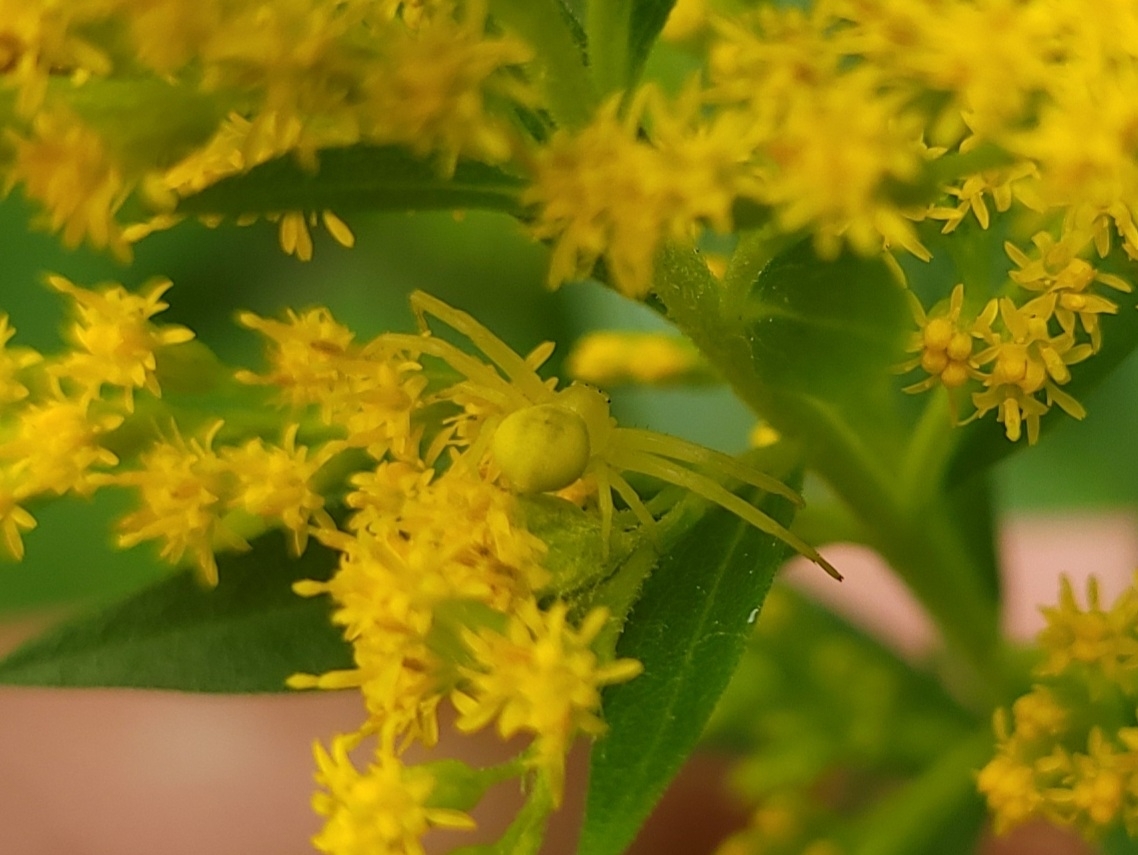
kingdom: Animalia
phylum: Arthropoda
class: Arachnida
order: Araneae
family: Thomisidae
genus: Misumena
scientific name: Misumena vatia
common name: Goldenrod crab spider
